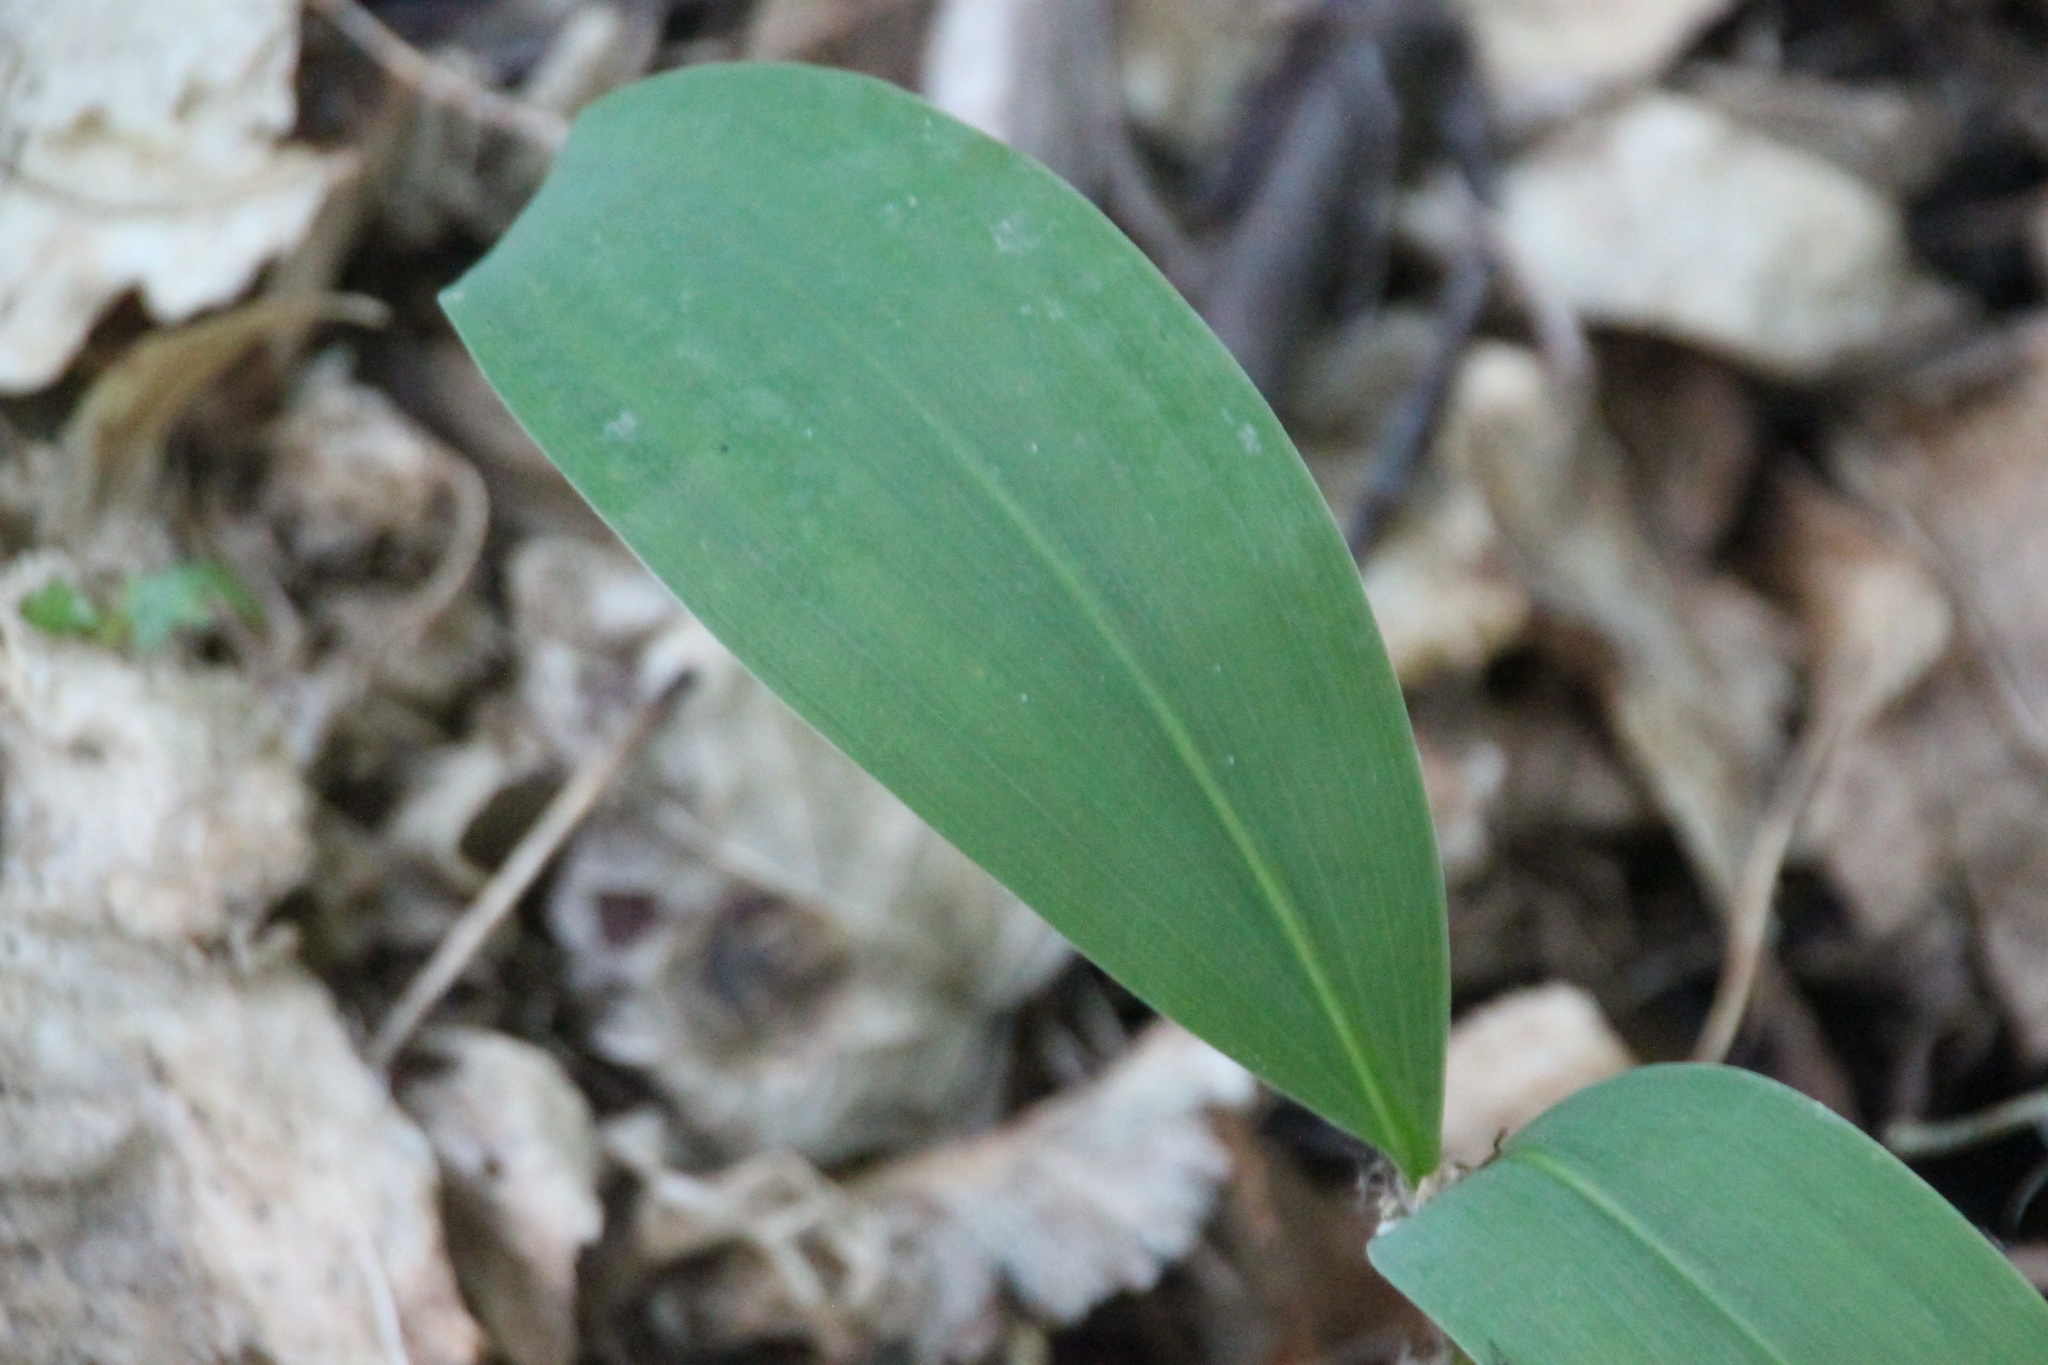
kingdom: Plantae
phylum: Tracheophyta
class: Liliopsida
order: Asparagales
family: Asparagaceae
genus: Convallaria
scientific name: Convallaria majalis
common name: Lily-of-the-valley
